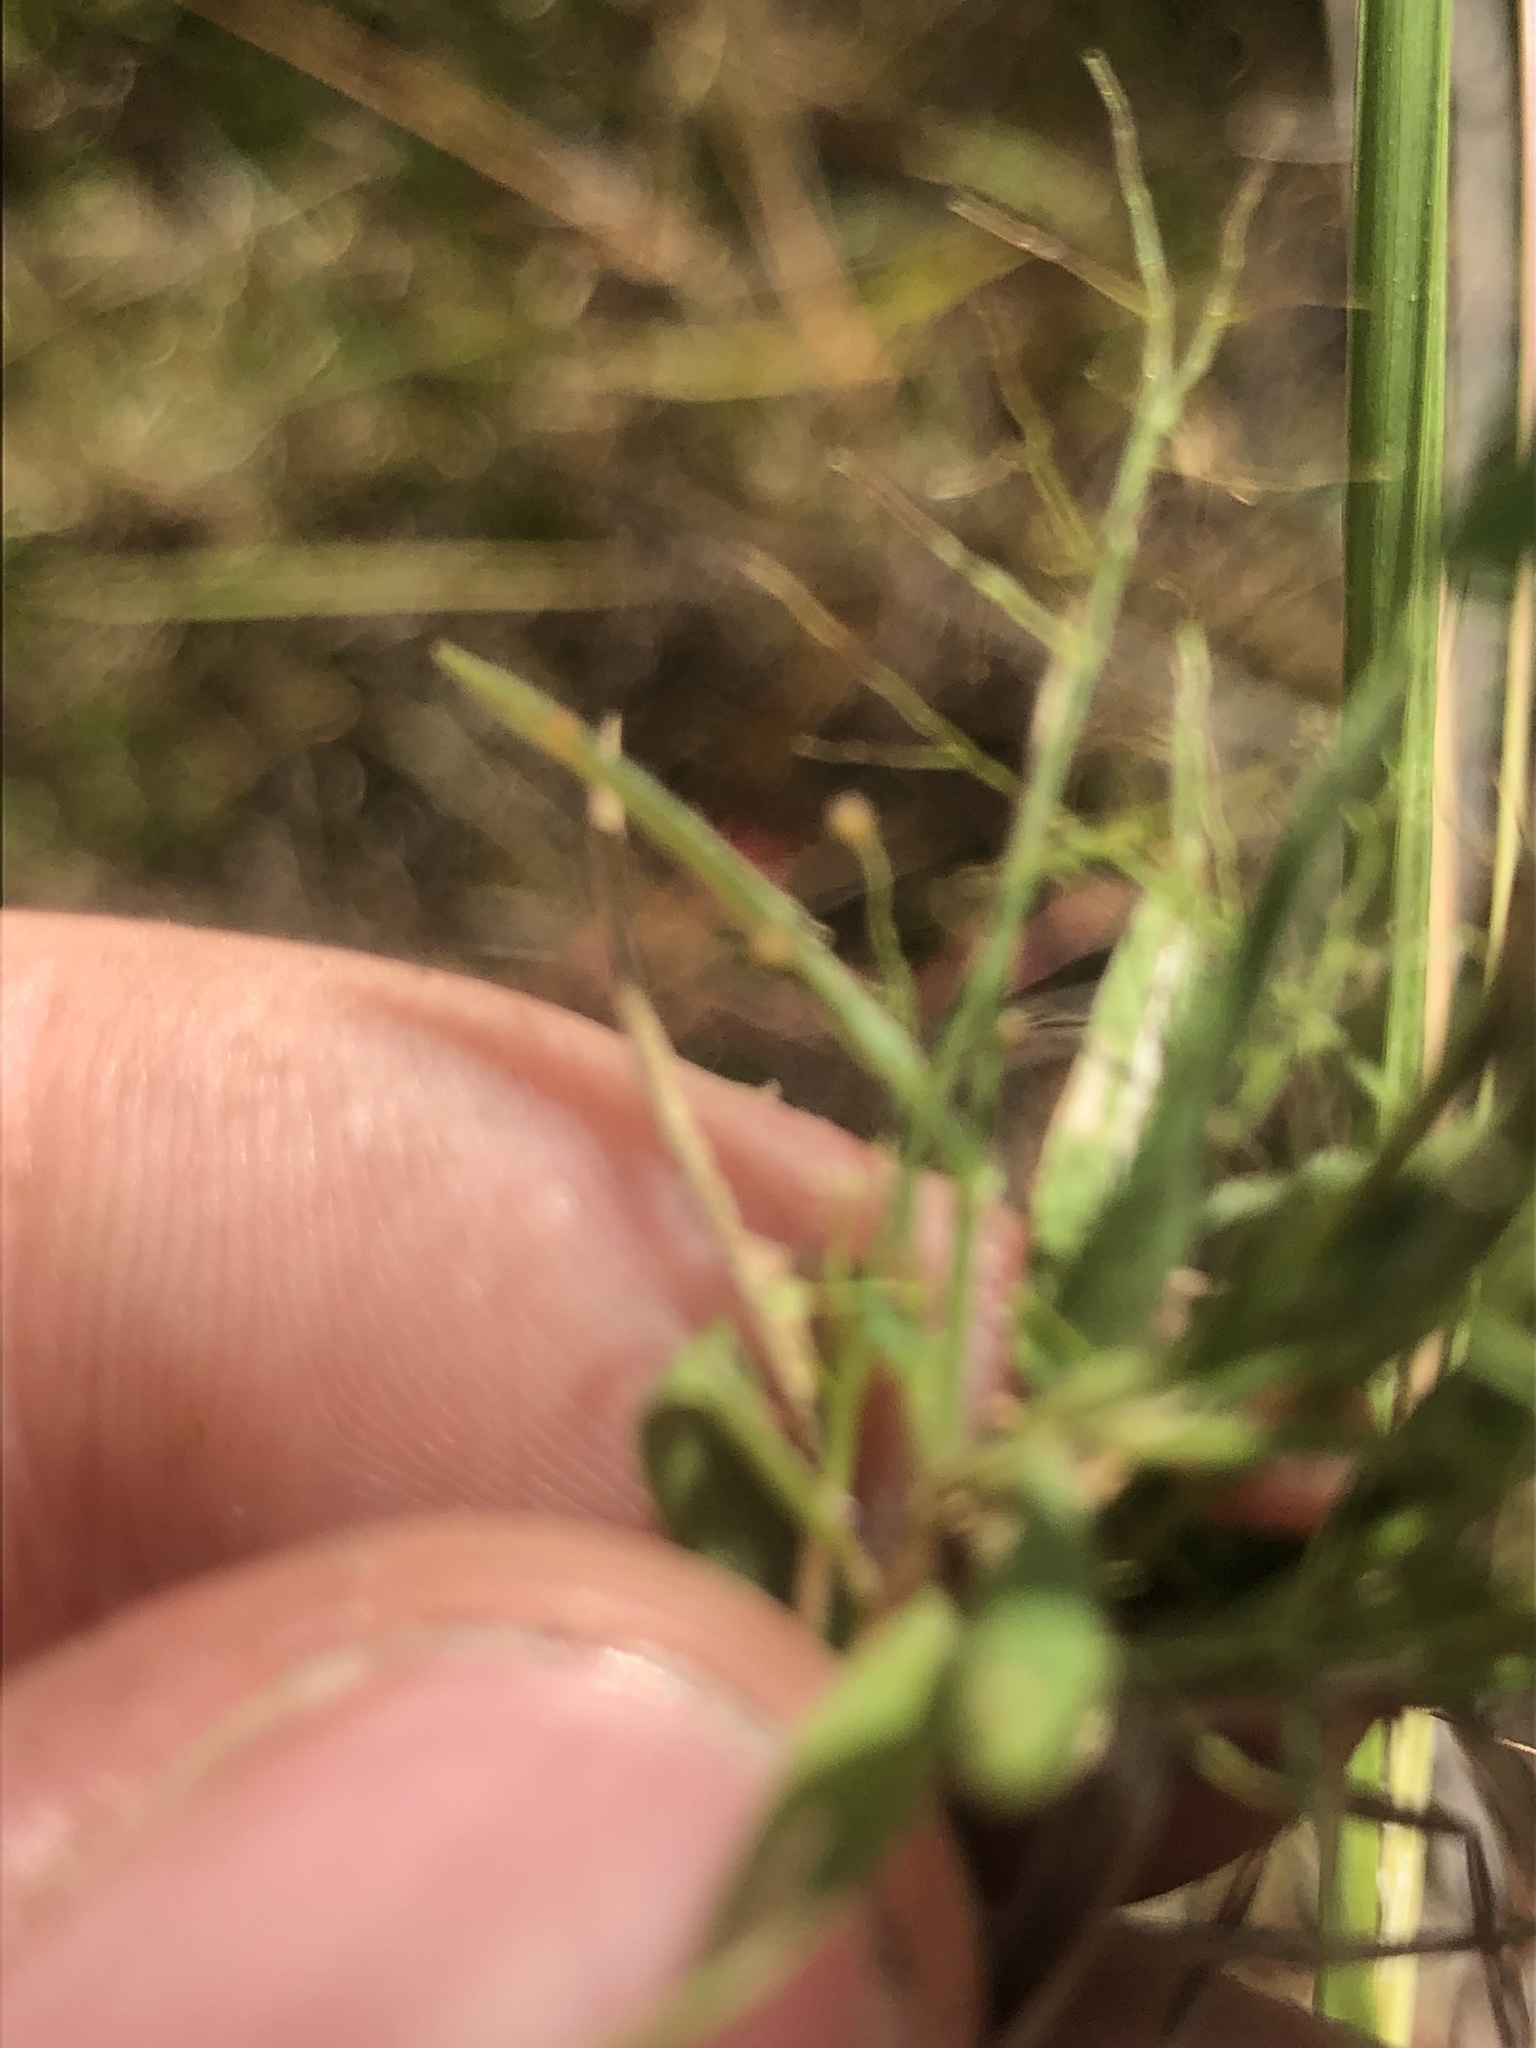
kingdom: Plantae
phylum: Tracheophyta
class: Liliopsida
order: Poales
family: Poaceae
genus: Dichanthelium
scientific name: Dichanthelium wrightianum
